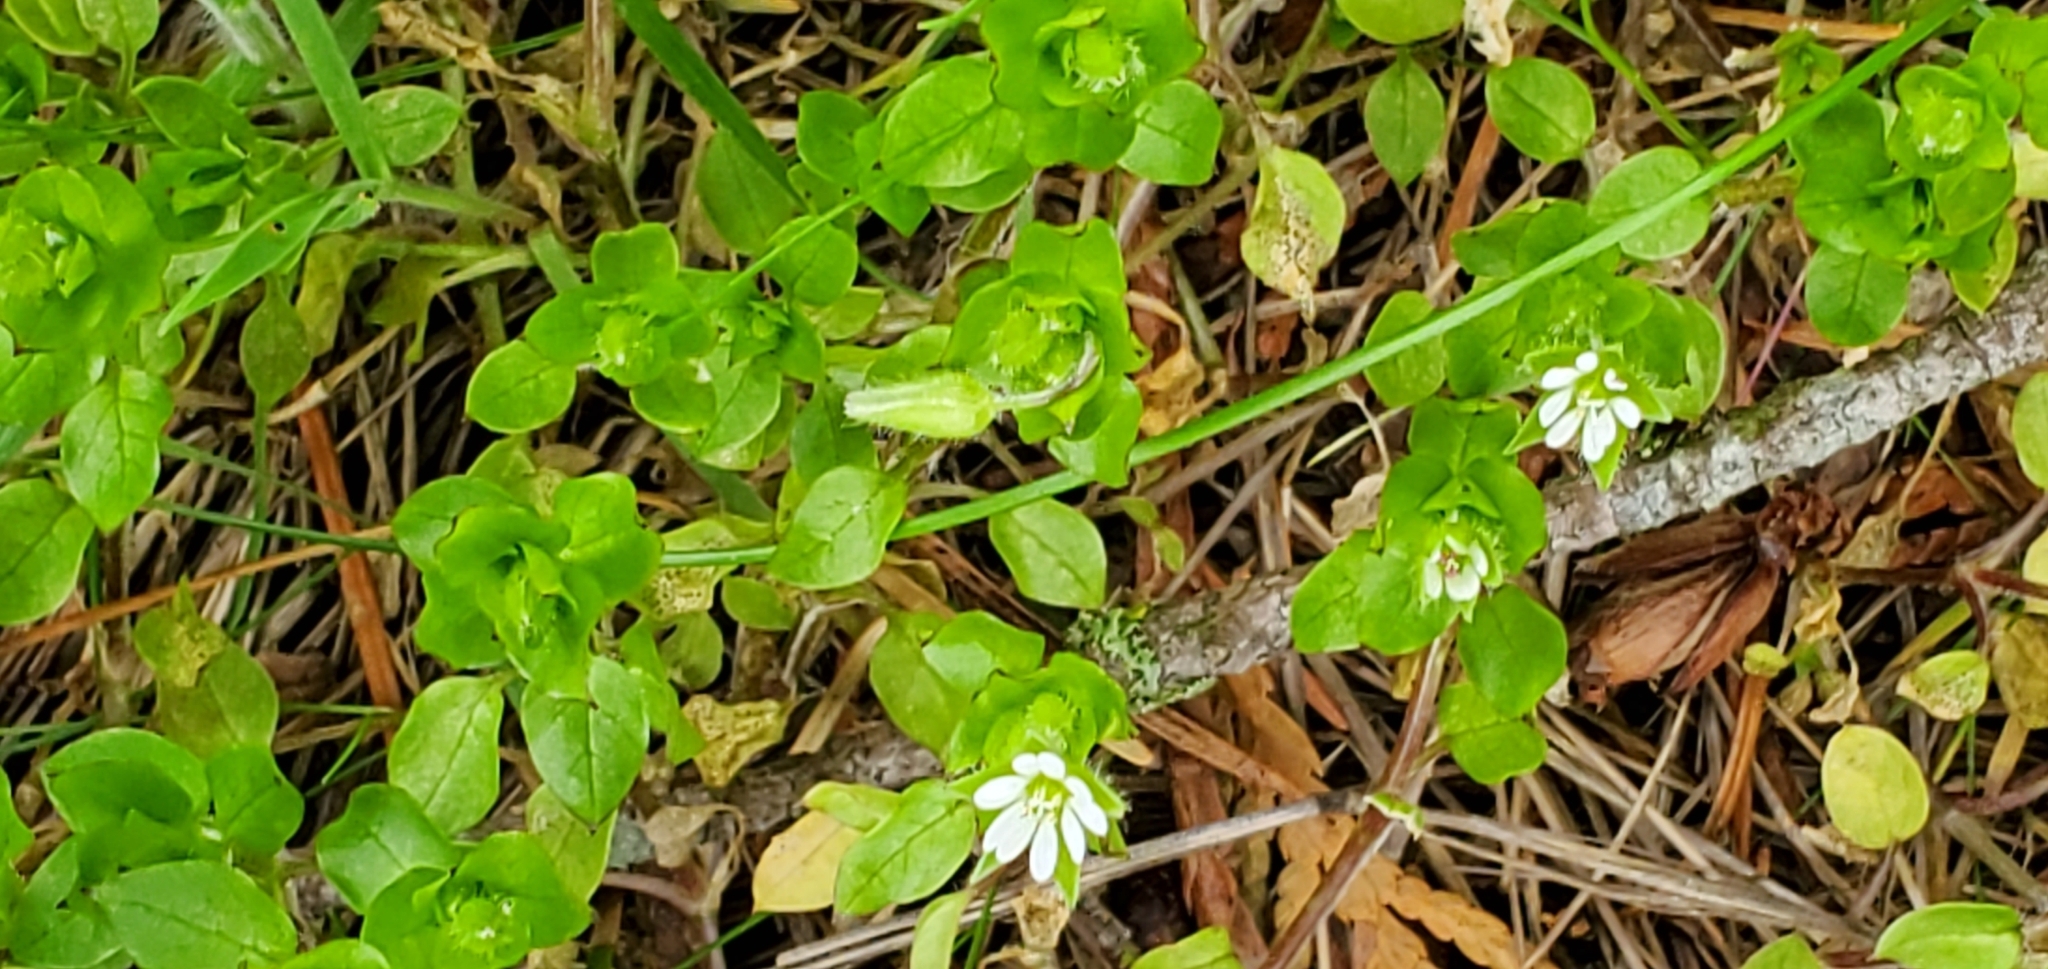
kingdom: Plantae
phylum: Tracheophyta
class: Magnoliopsida
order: Caryophyllales
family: Caryophyllaceae
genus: Stellaria
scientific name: Stellaria media
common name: Common chickweed
